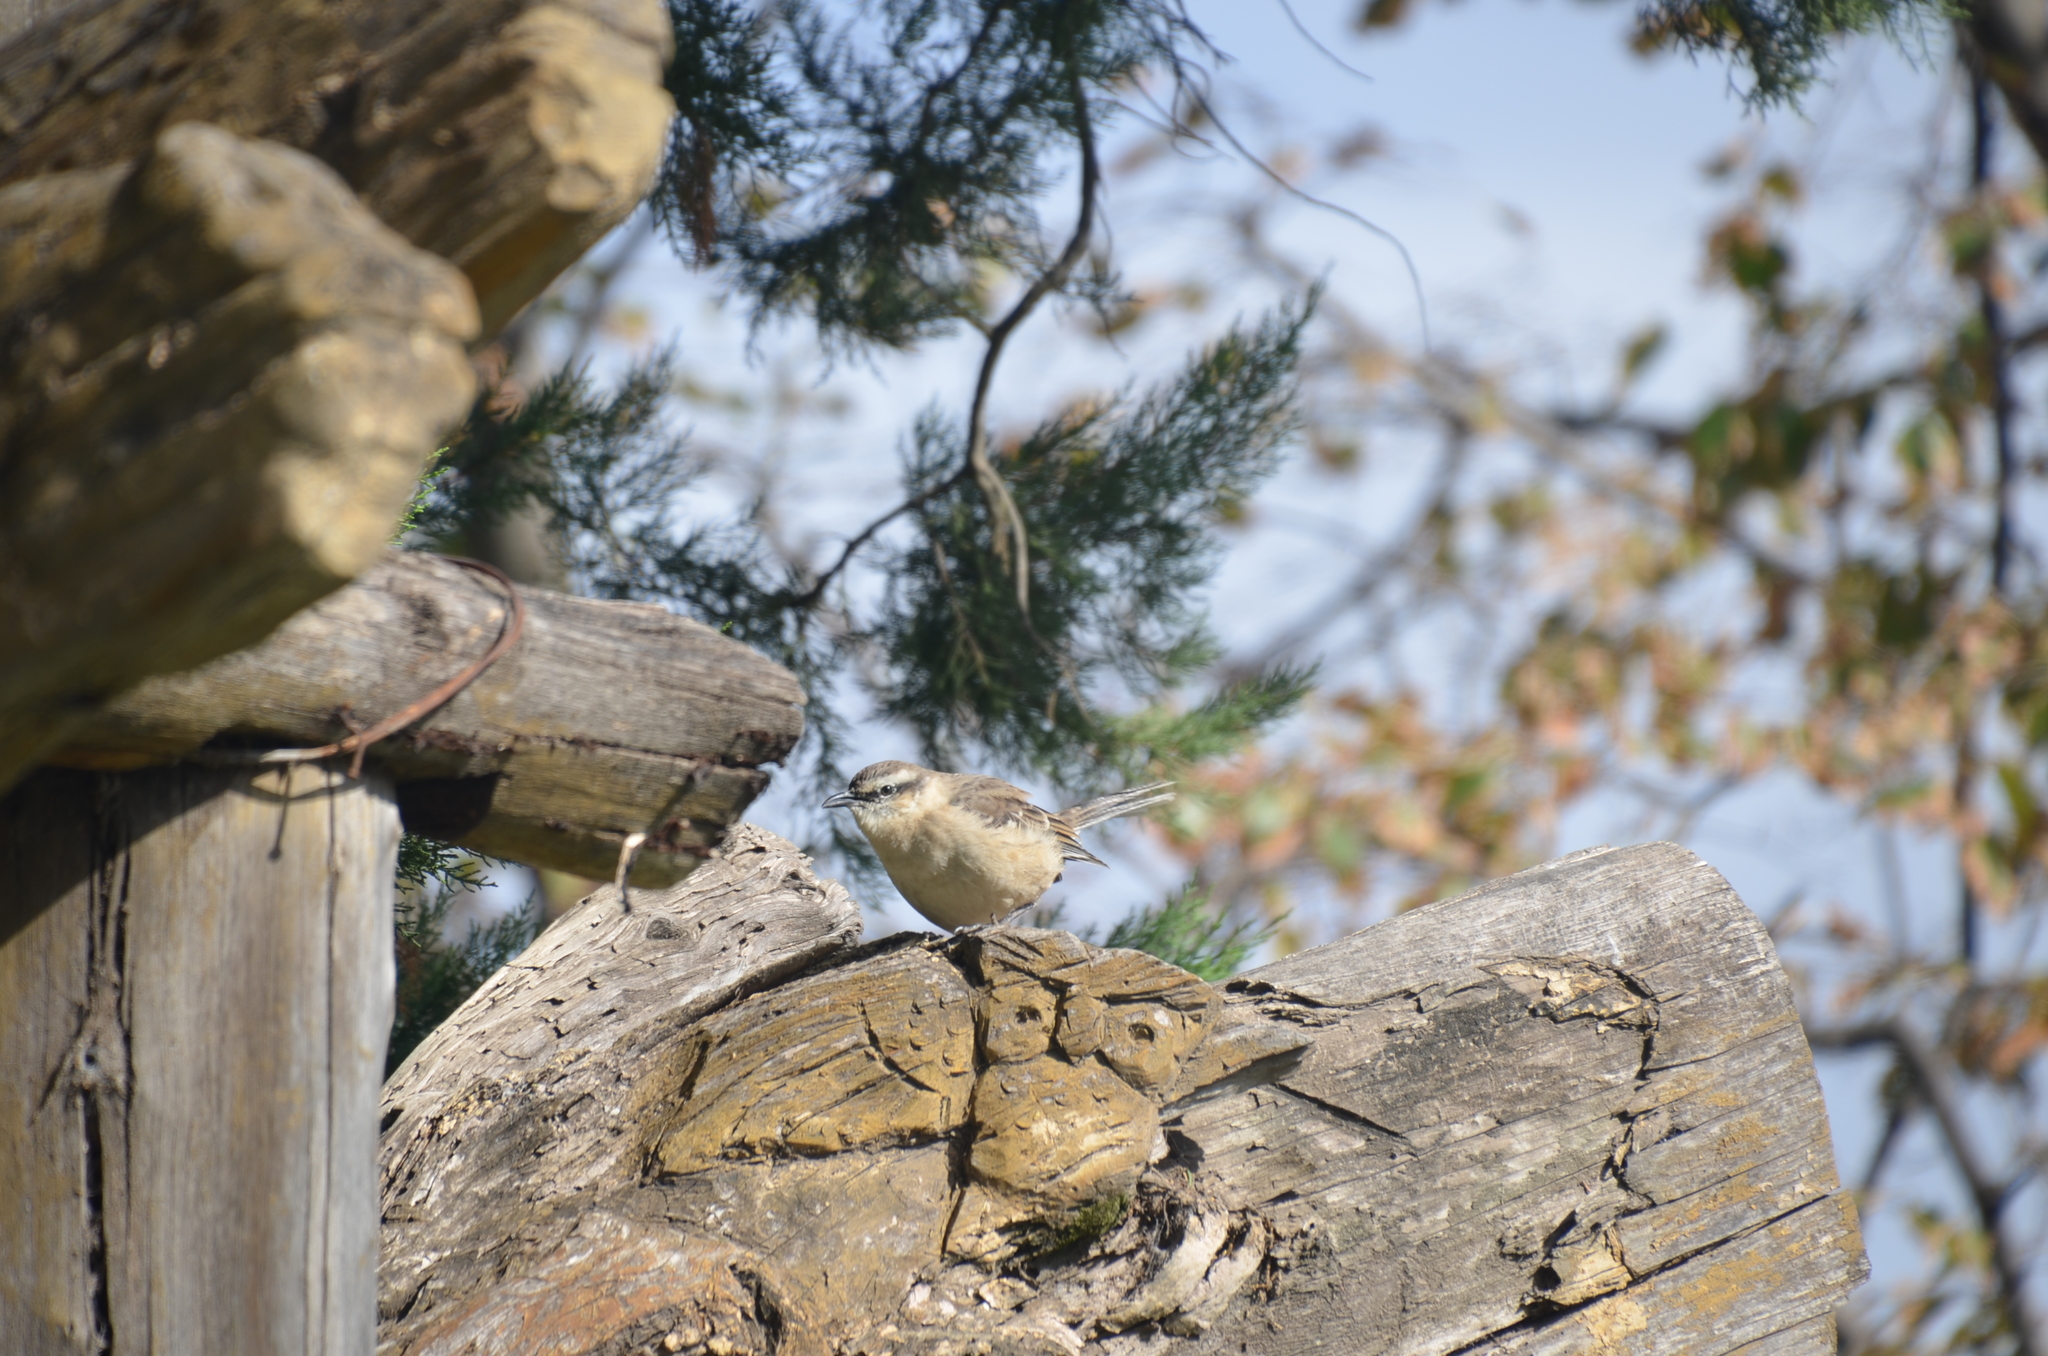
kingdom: Animalia
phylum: Chordata
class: Aves
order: Passeriformes
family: Mimidae
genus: Mimus
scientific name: Mimus saturninus
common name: Chalk-browed mockingbird
